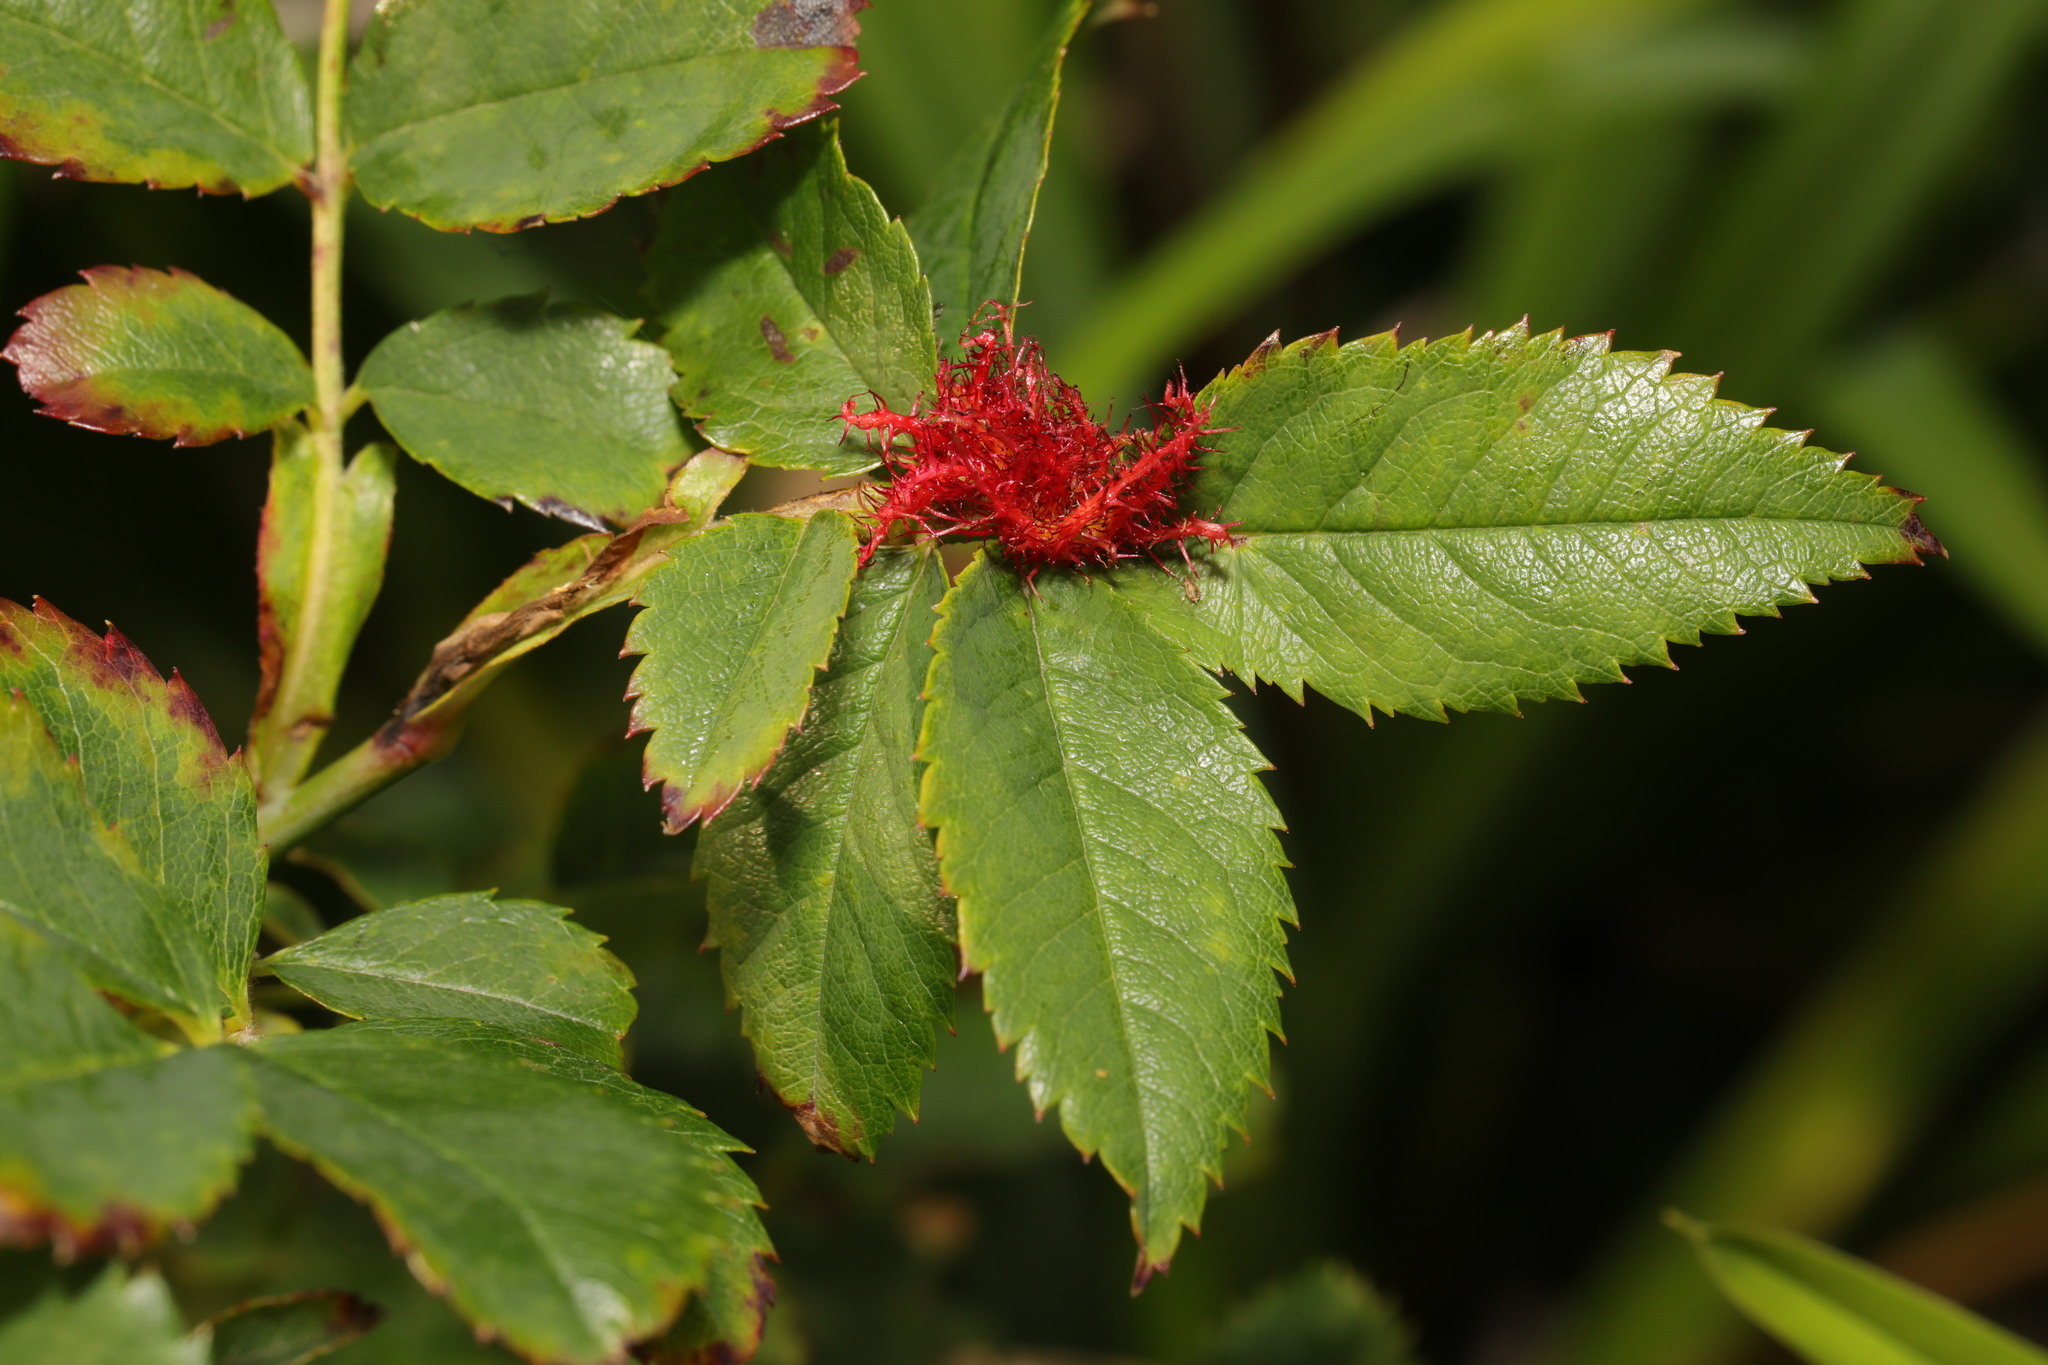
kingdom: Animalia
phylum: Arthropoda
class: Insecta
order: Hymenoptera
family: Cynipidae
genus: Diplolepis
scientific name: Diplolepis rosae
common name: Bedeguar gall
